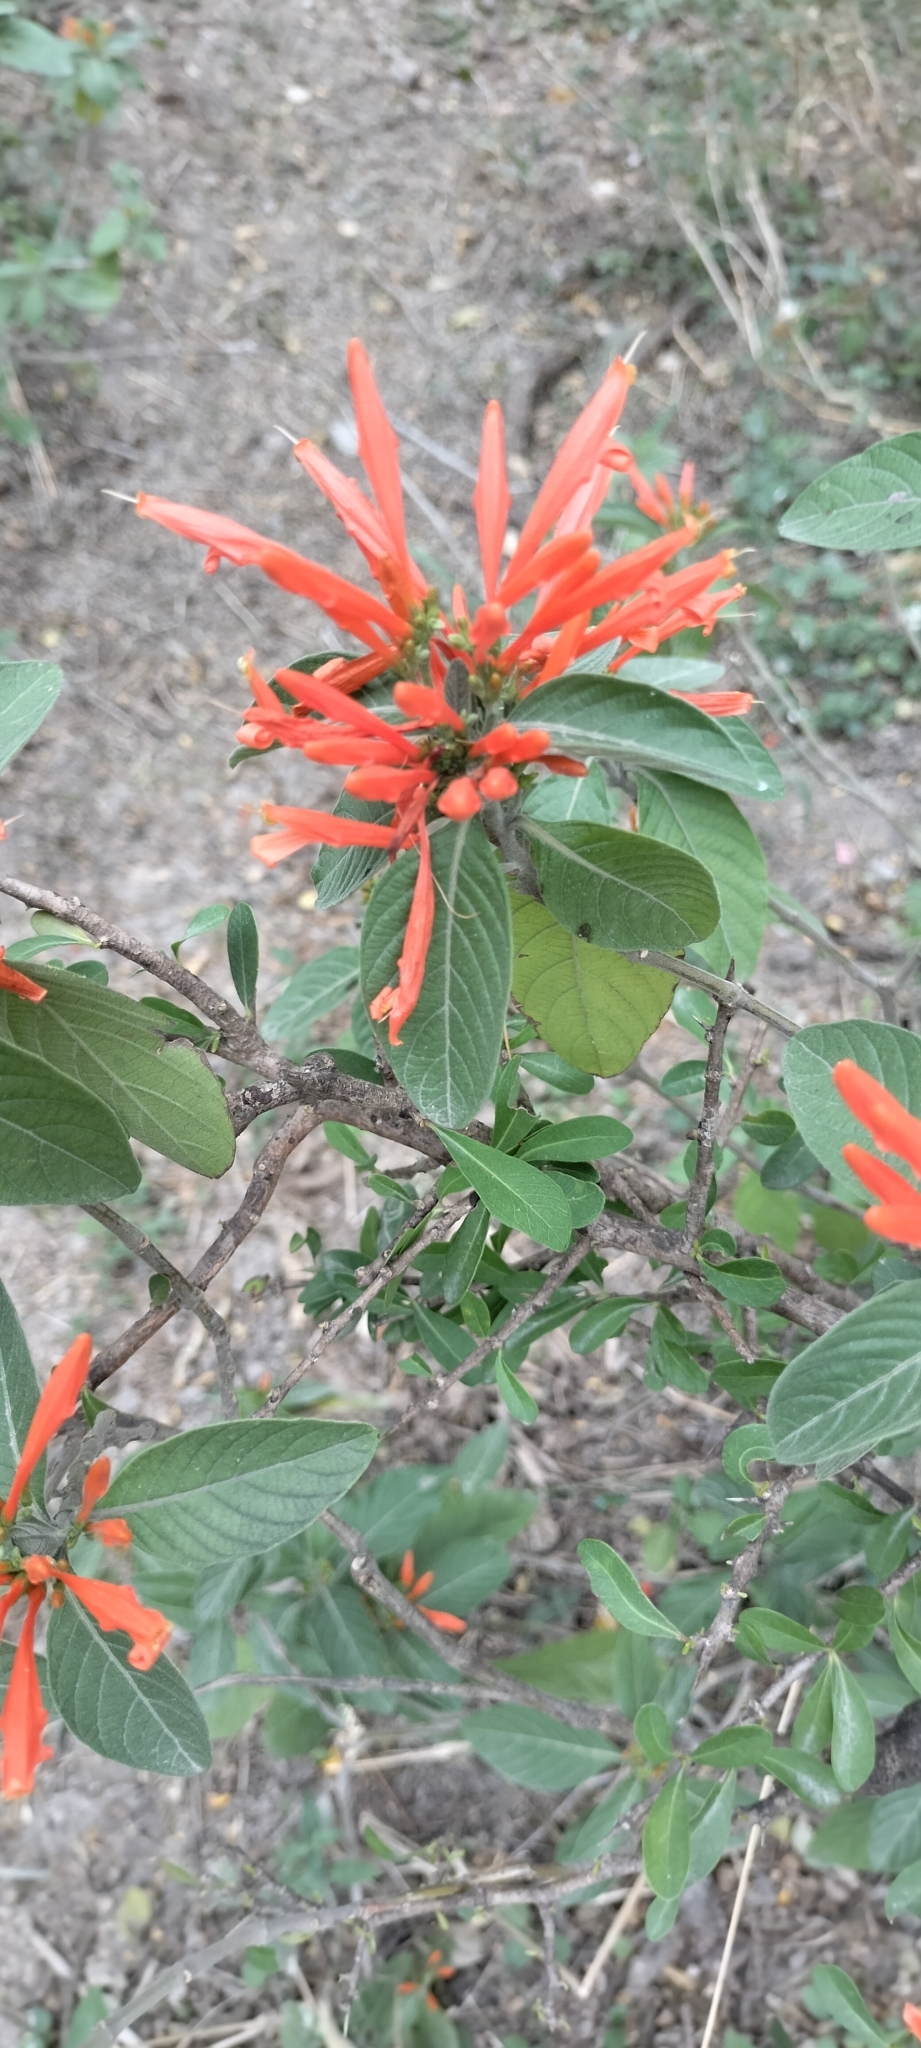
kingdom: Plantae
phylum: Tracheophyta
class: Magnoliopsida
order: Lamiales
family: Acanthaceae
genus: Justicia
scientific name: Justicia spicigera
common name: Mohintli
